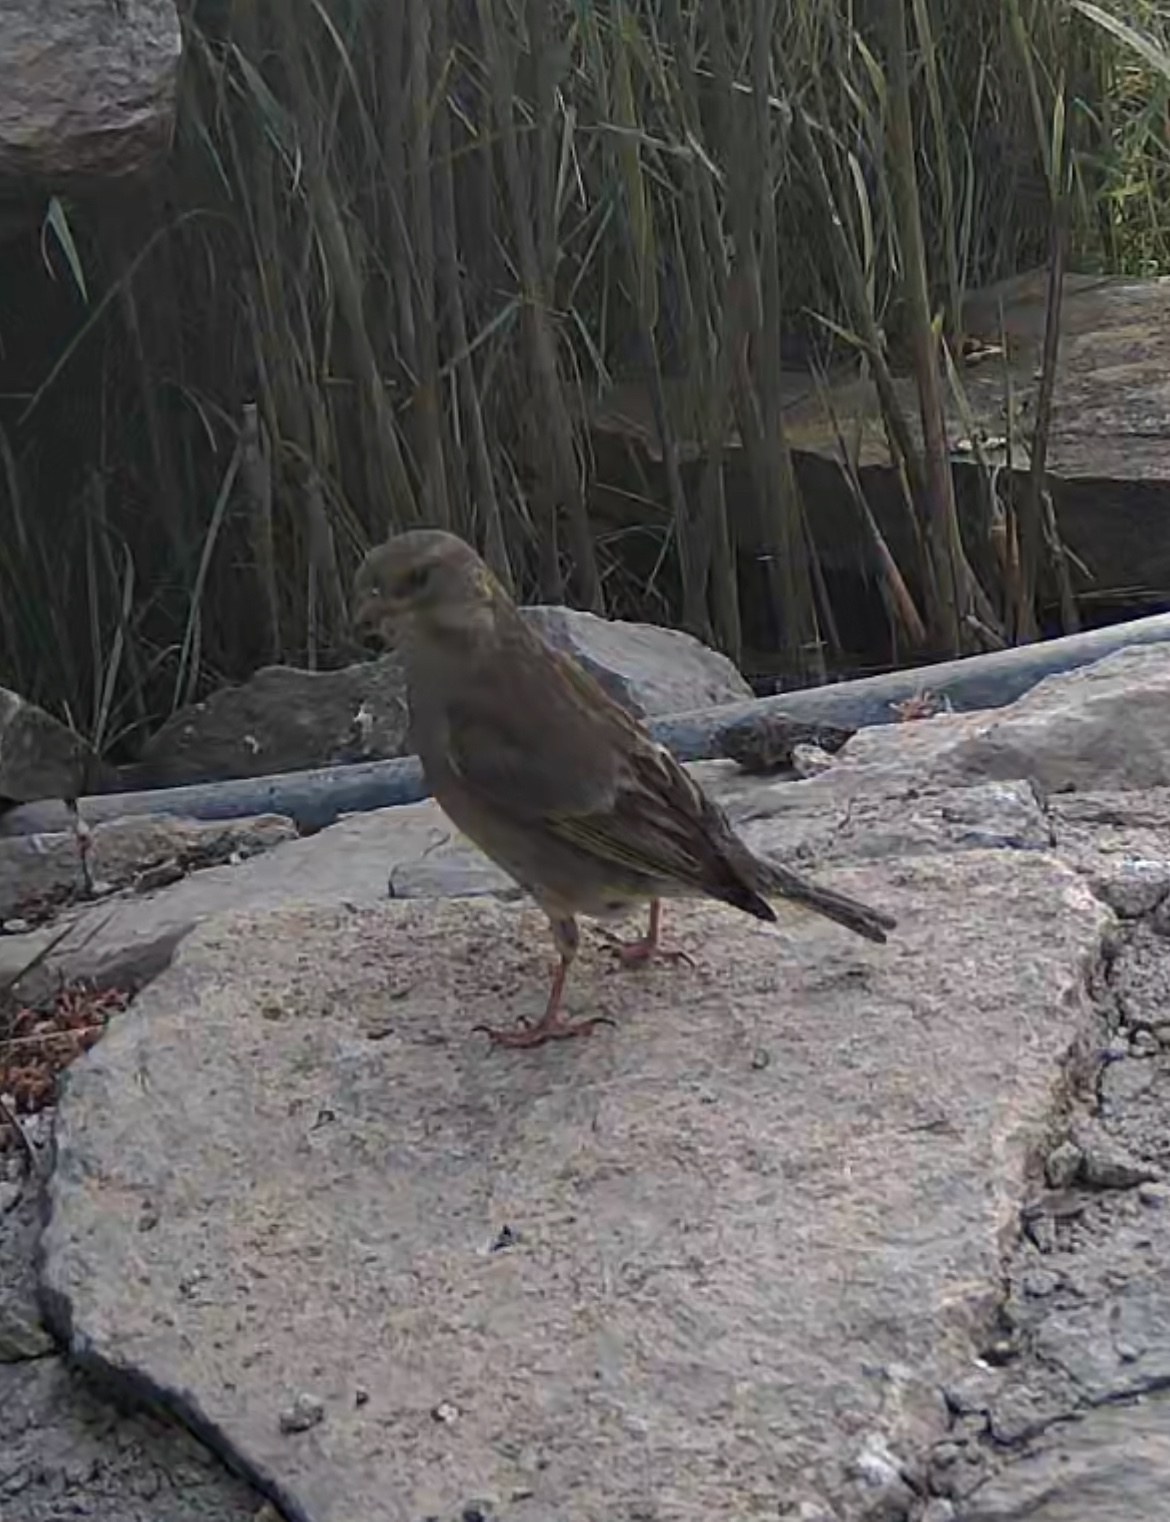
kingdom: Plantae
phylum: Tracheophyta
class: Liliopsida
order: Poales
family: Poaceae
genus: Chloris
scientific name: Chloris chloris
